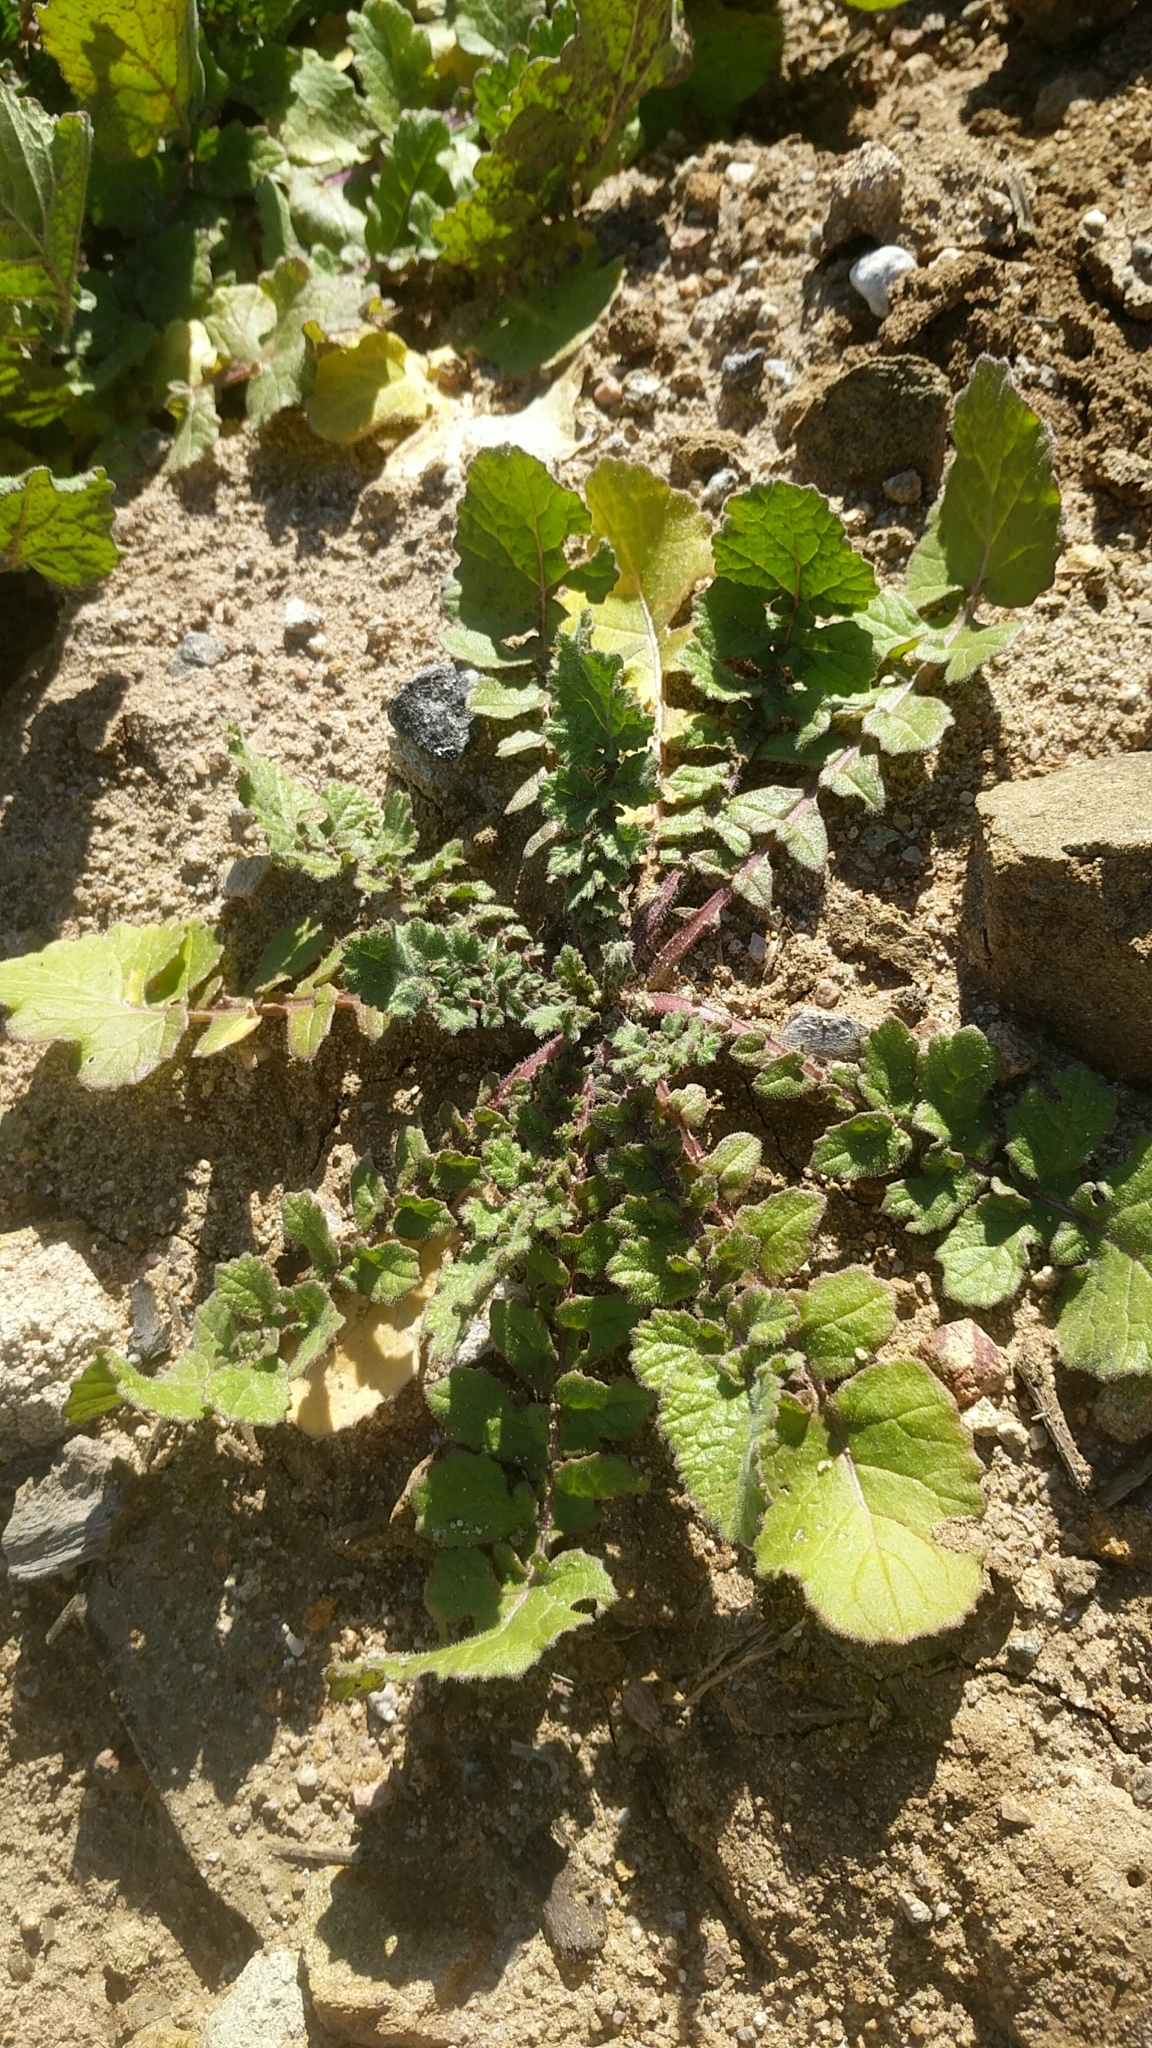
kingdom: Plantae
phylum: Tracheophyta
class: Magnoliopsida
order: Brassicales
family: Brassicaceae
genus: Hirschfeldia
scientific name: Hirschfeldia incana
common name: Hoary mustard
